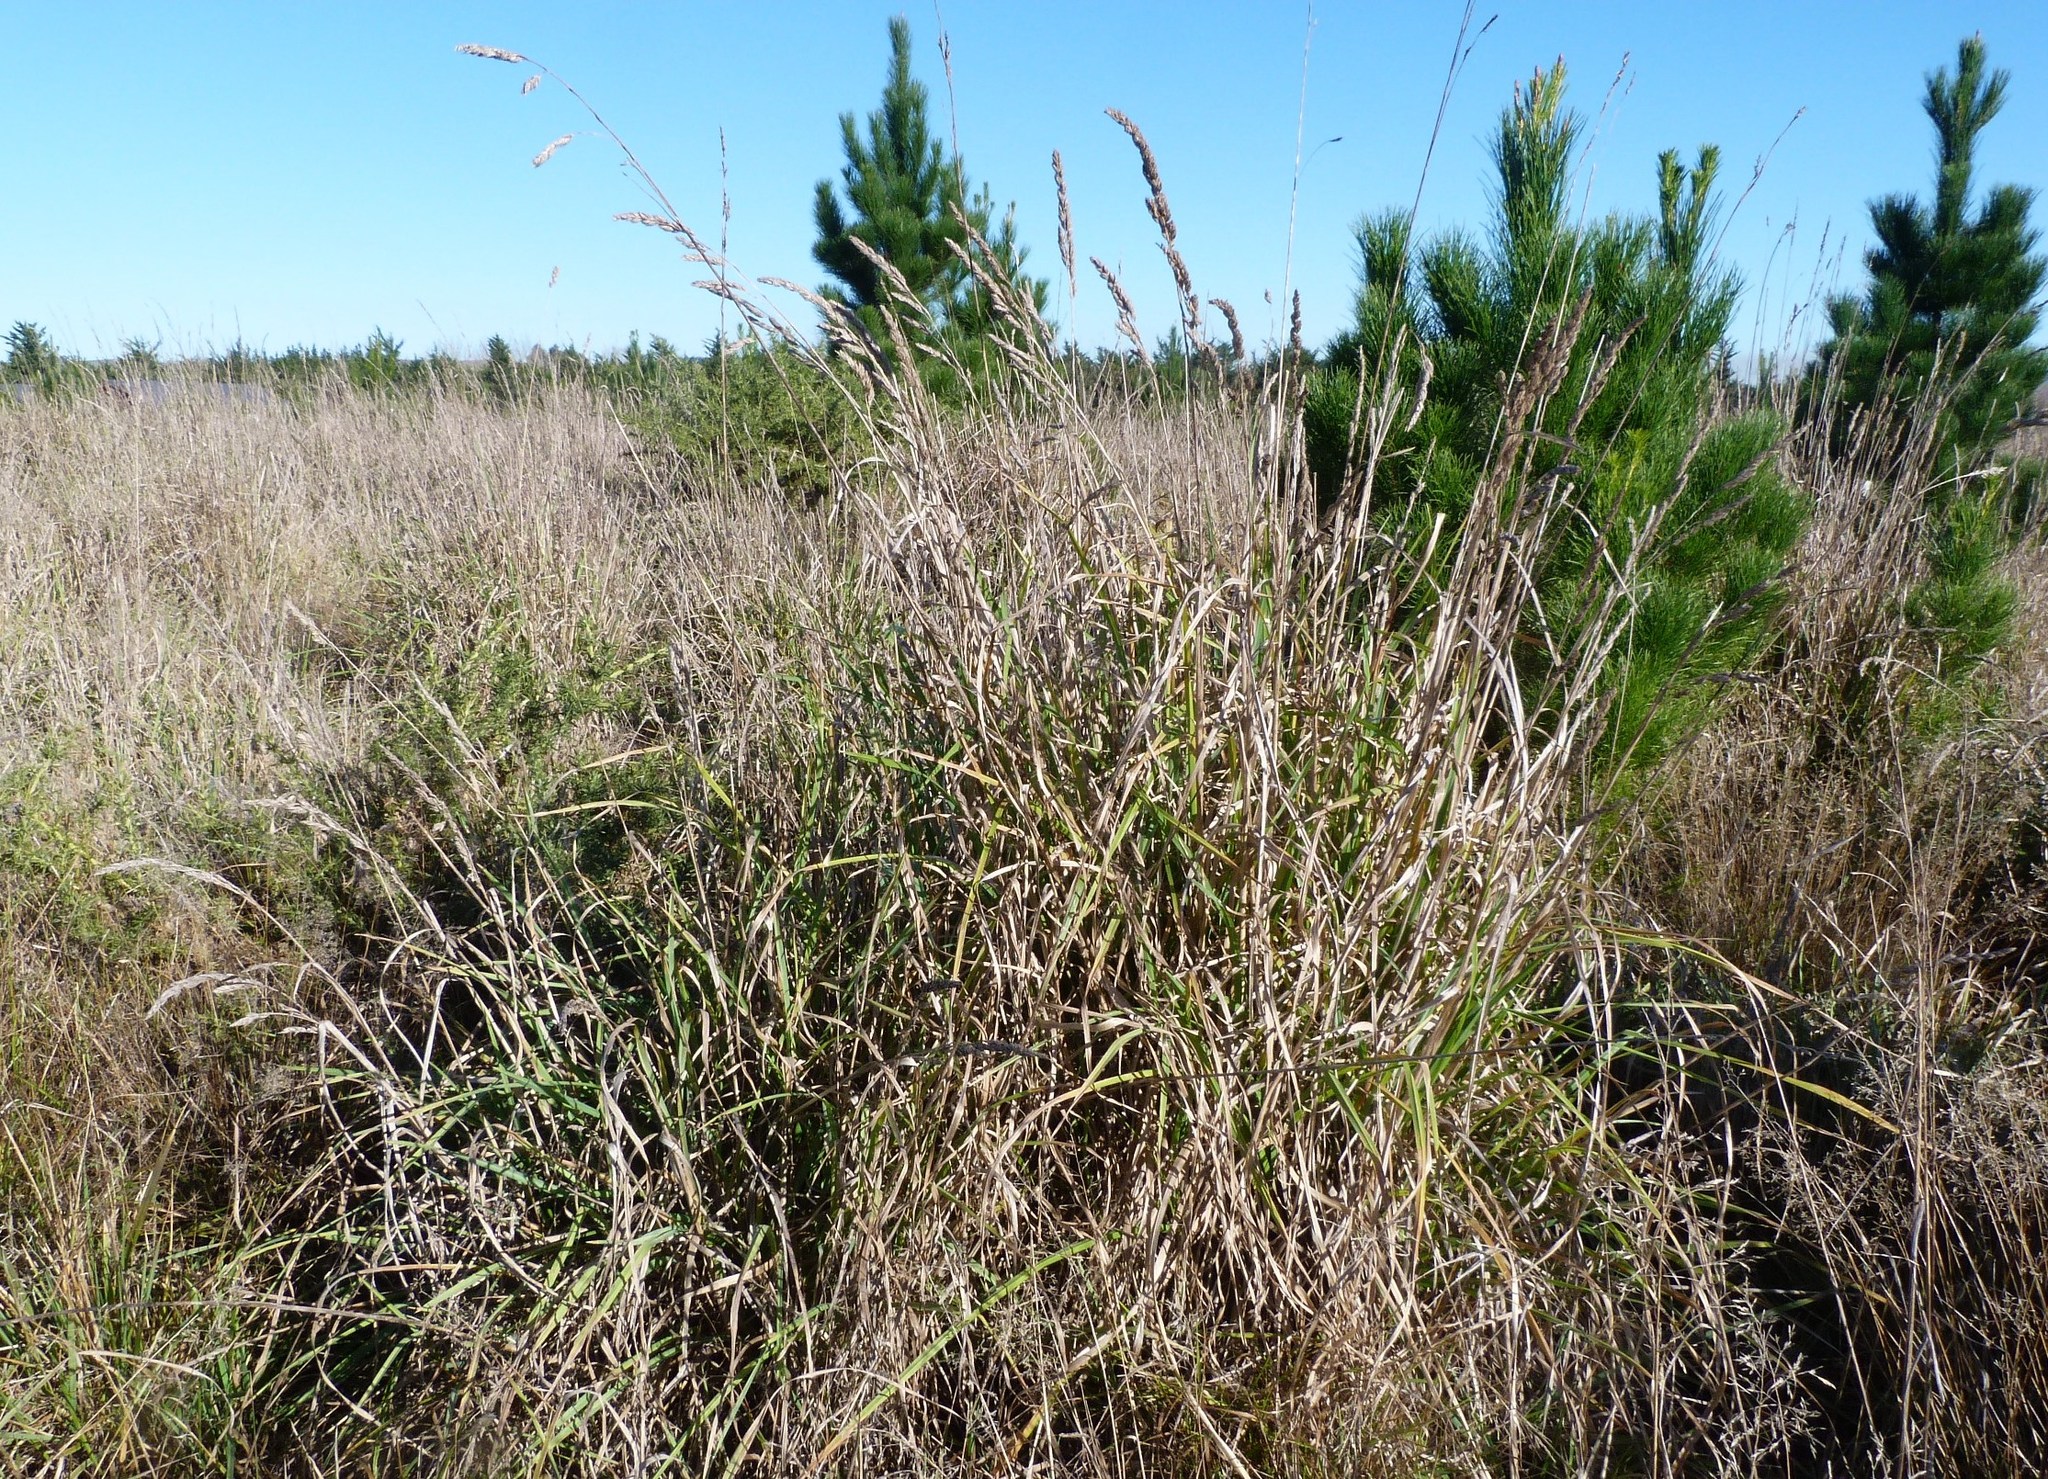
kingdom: Plantae
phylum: Tracheophyta
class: Liliopsida
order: Poales
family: Poaceae
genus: Dactylis
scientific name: Dactylis glomerata
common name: Orchardgrass
